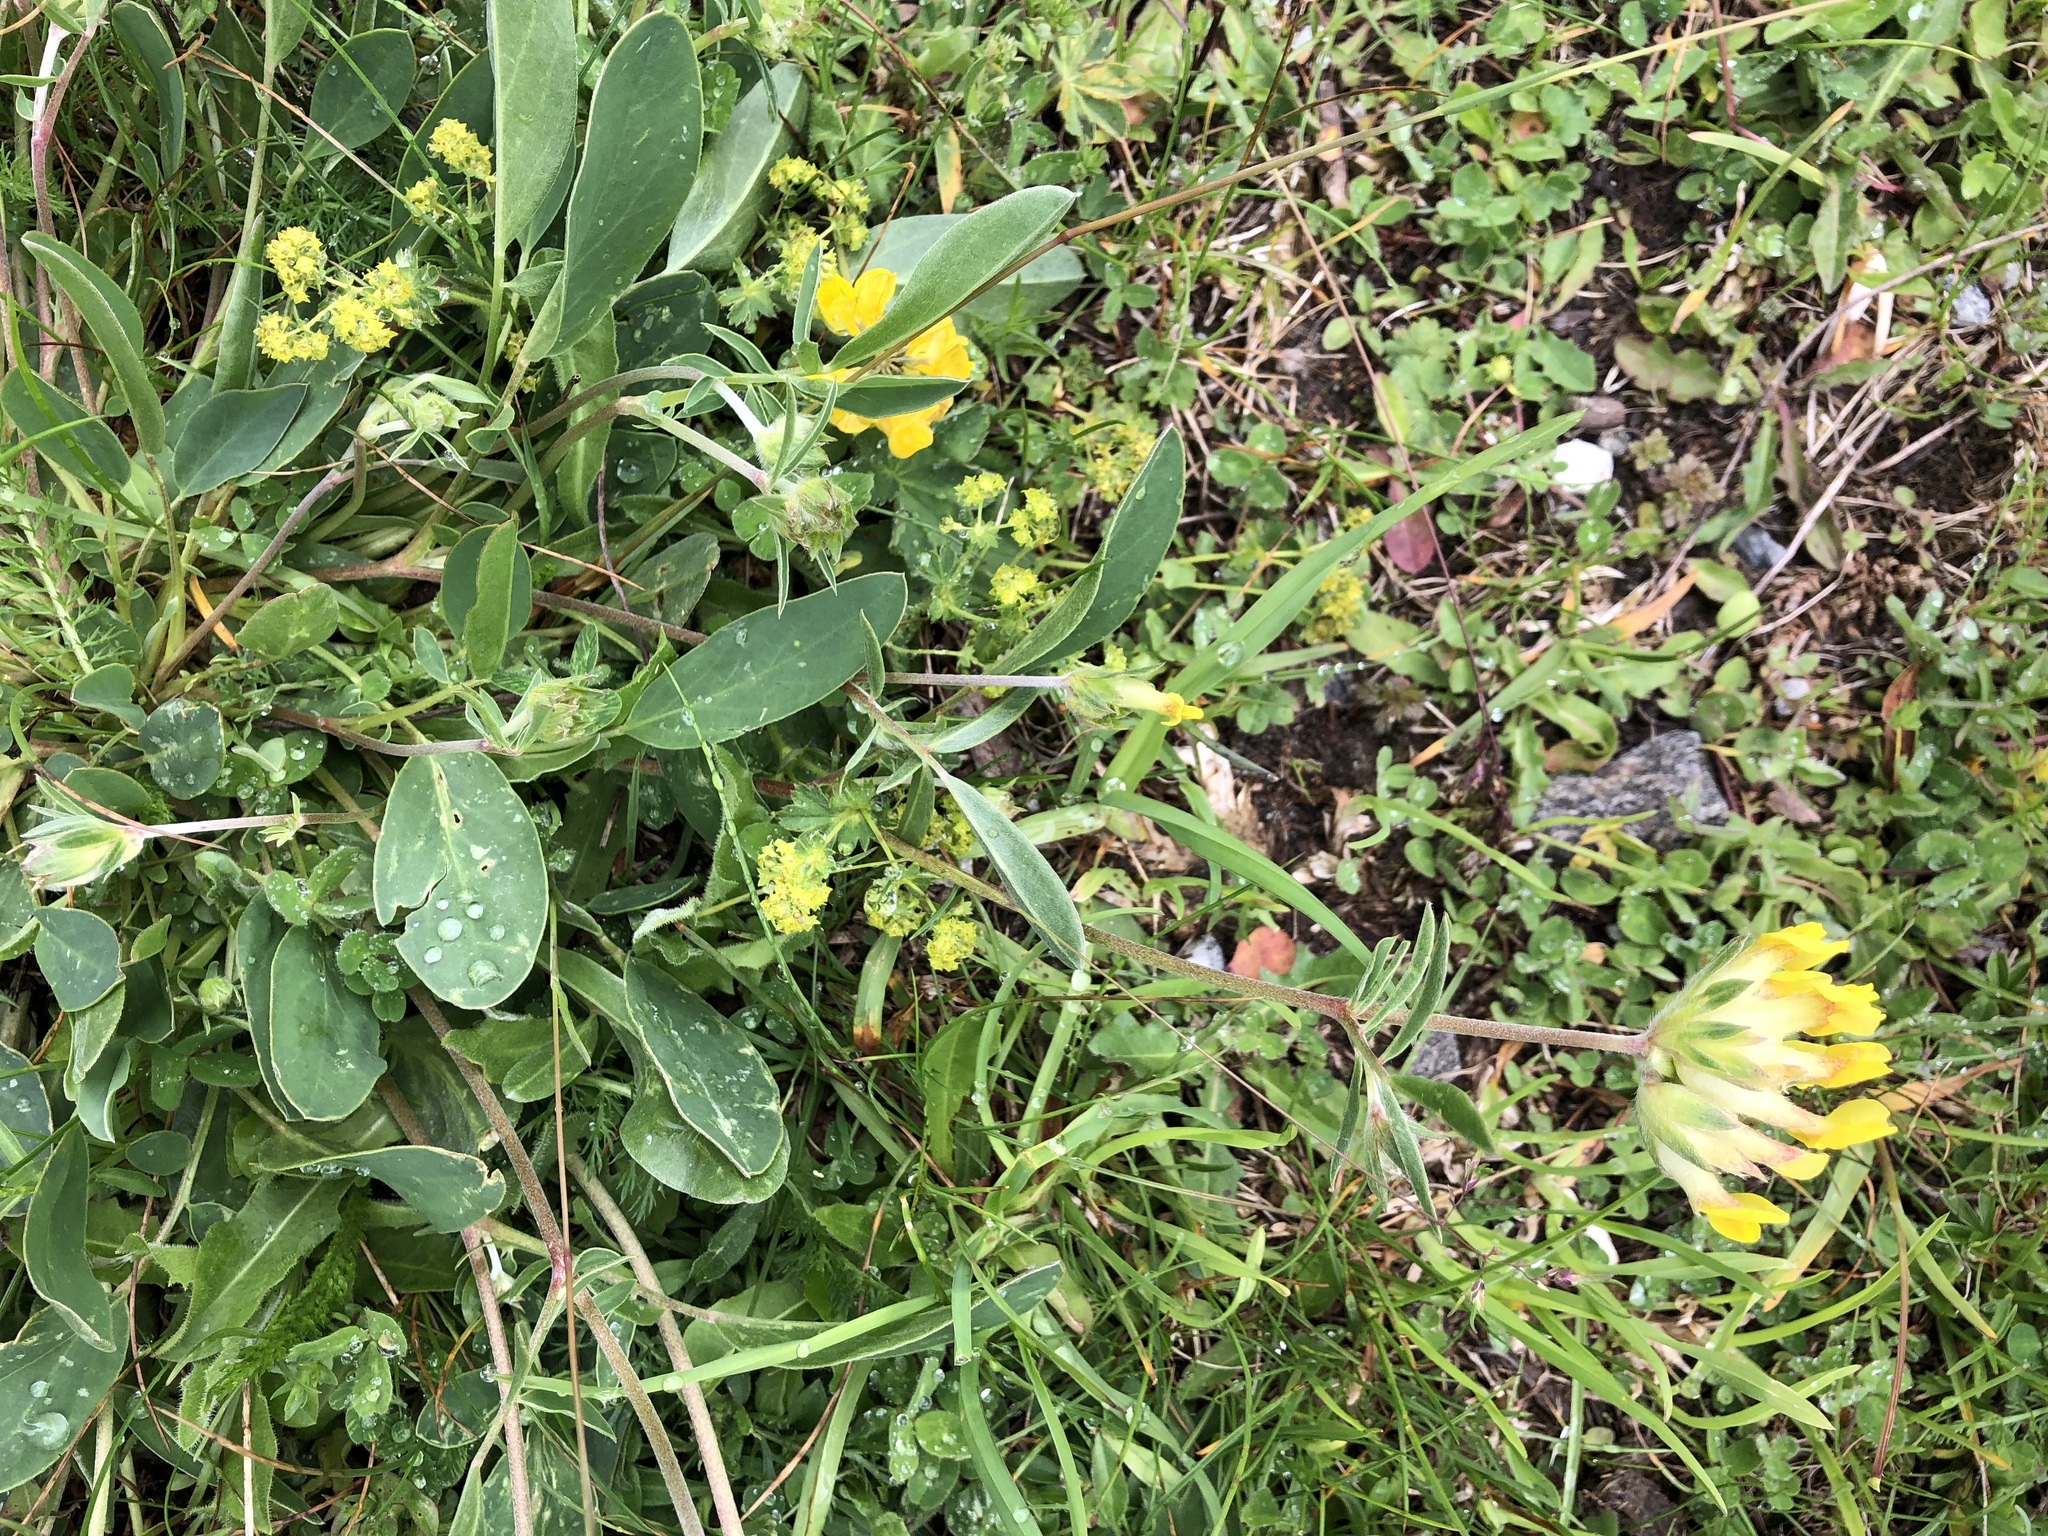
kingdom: Plantae
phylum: Tracheophyta
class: Magnoliopsida
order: Fabales
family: Fabaceae
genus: Anthyllis
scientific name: Anthyllis vulneraria
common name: Kidney vetch
